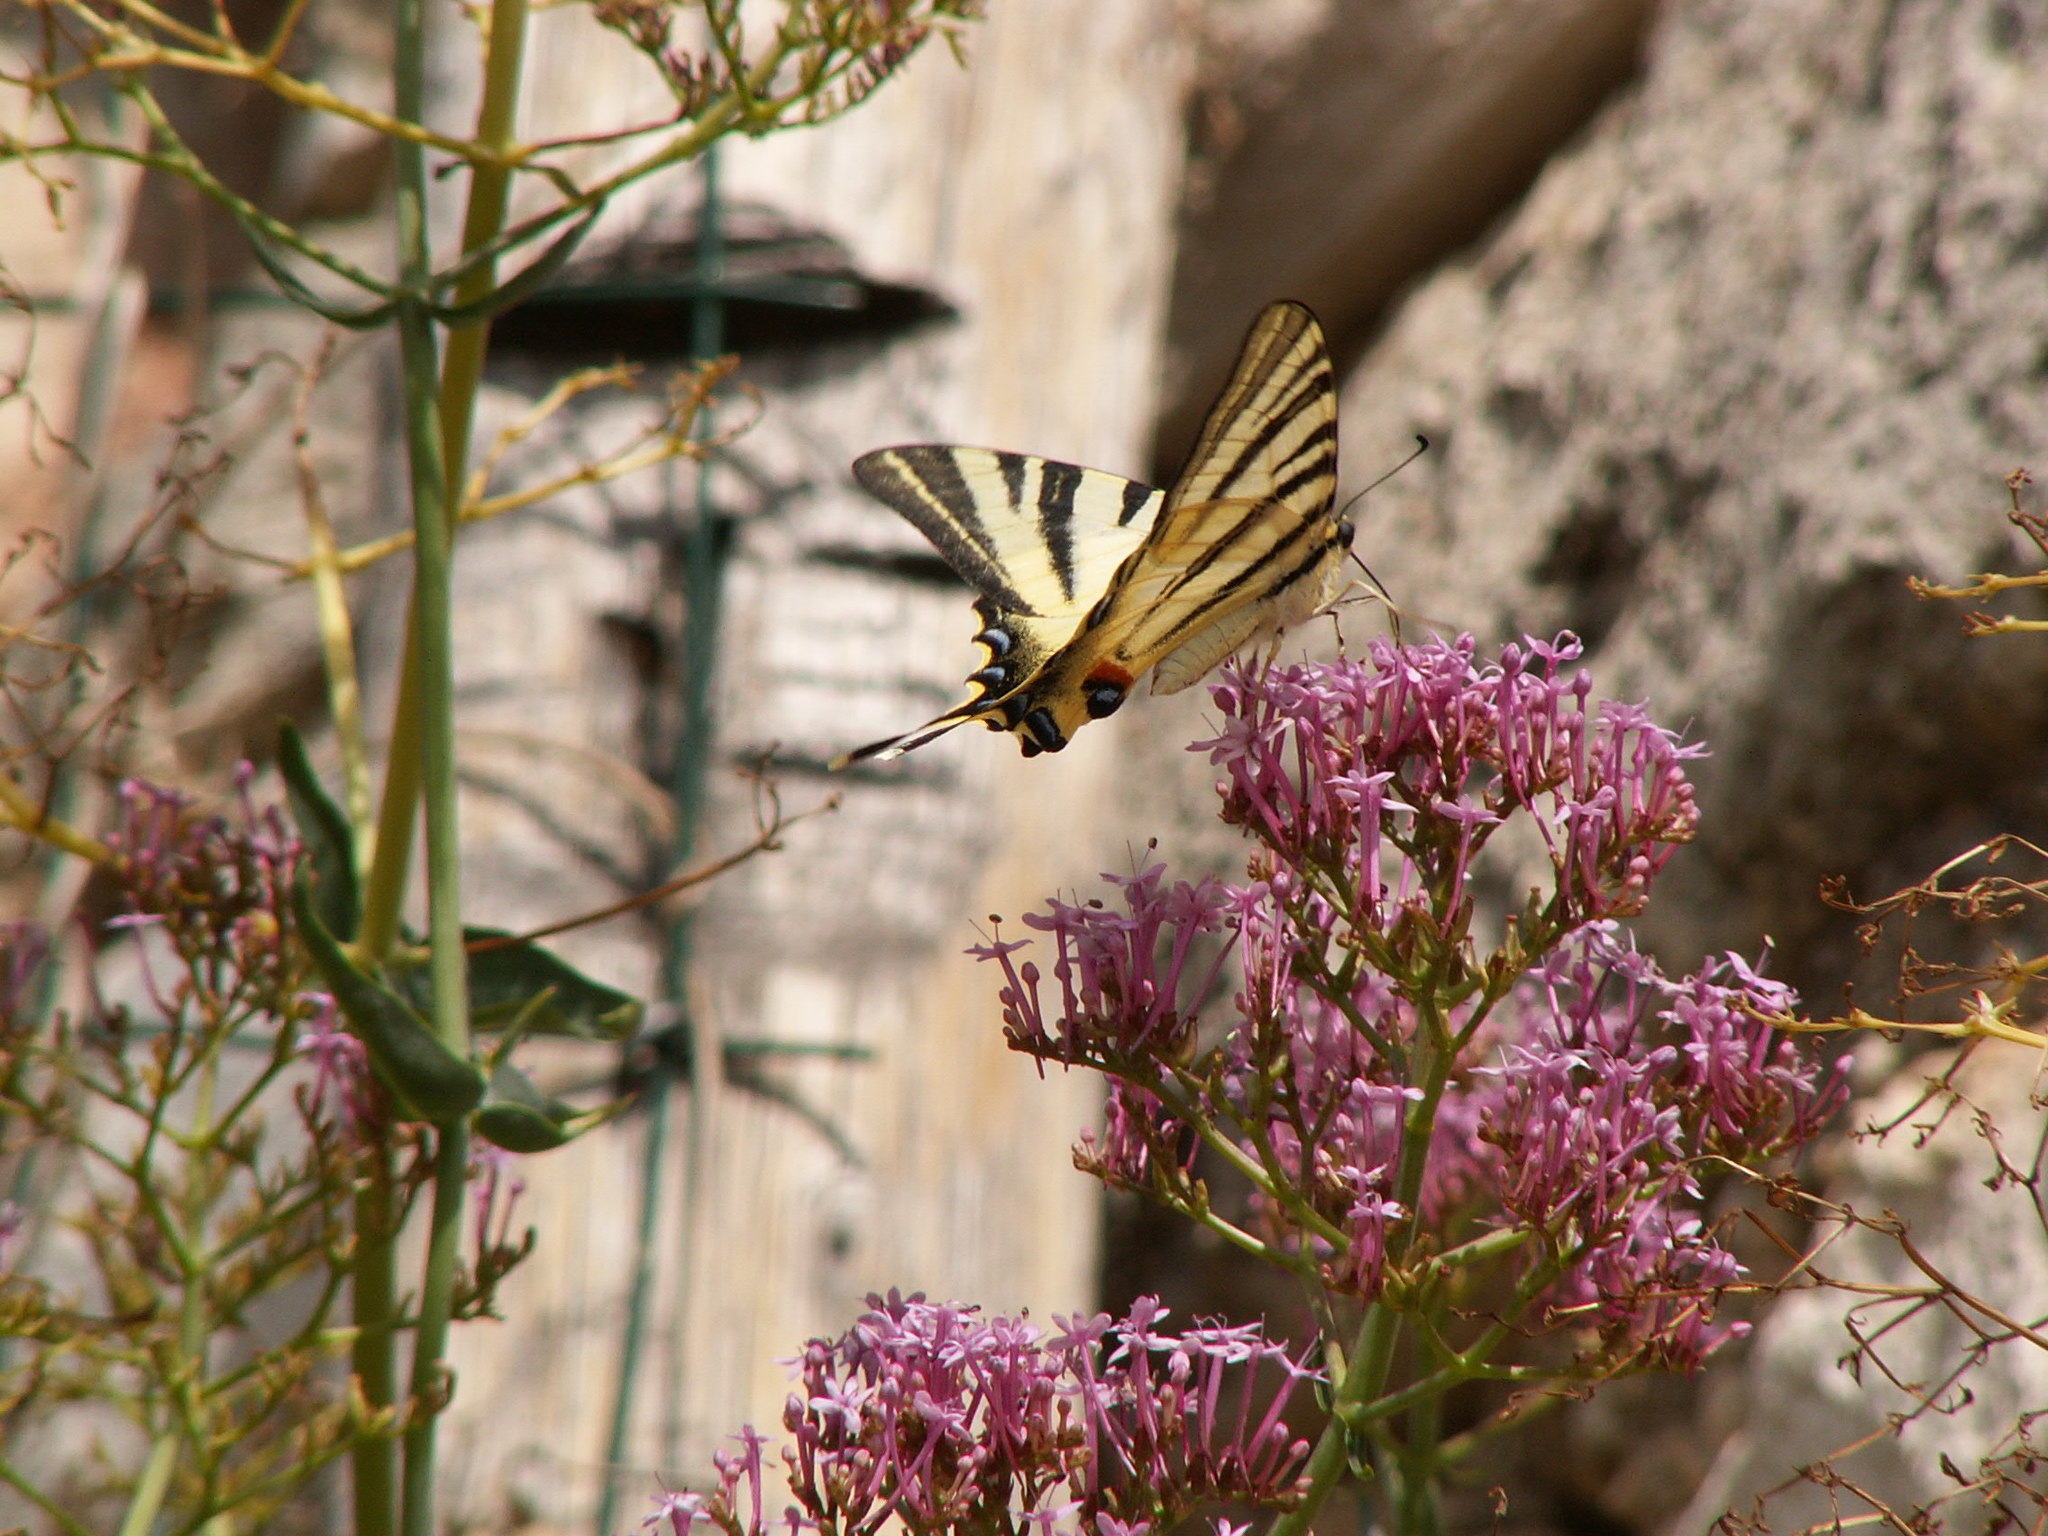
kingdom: Animalia
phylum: Arthropoda
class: Insecta
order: Lepidoptera
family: Papilionidae
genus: Iphiclides
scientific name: Iphiclides podalirius
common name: Scarce swallowtail
